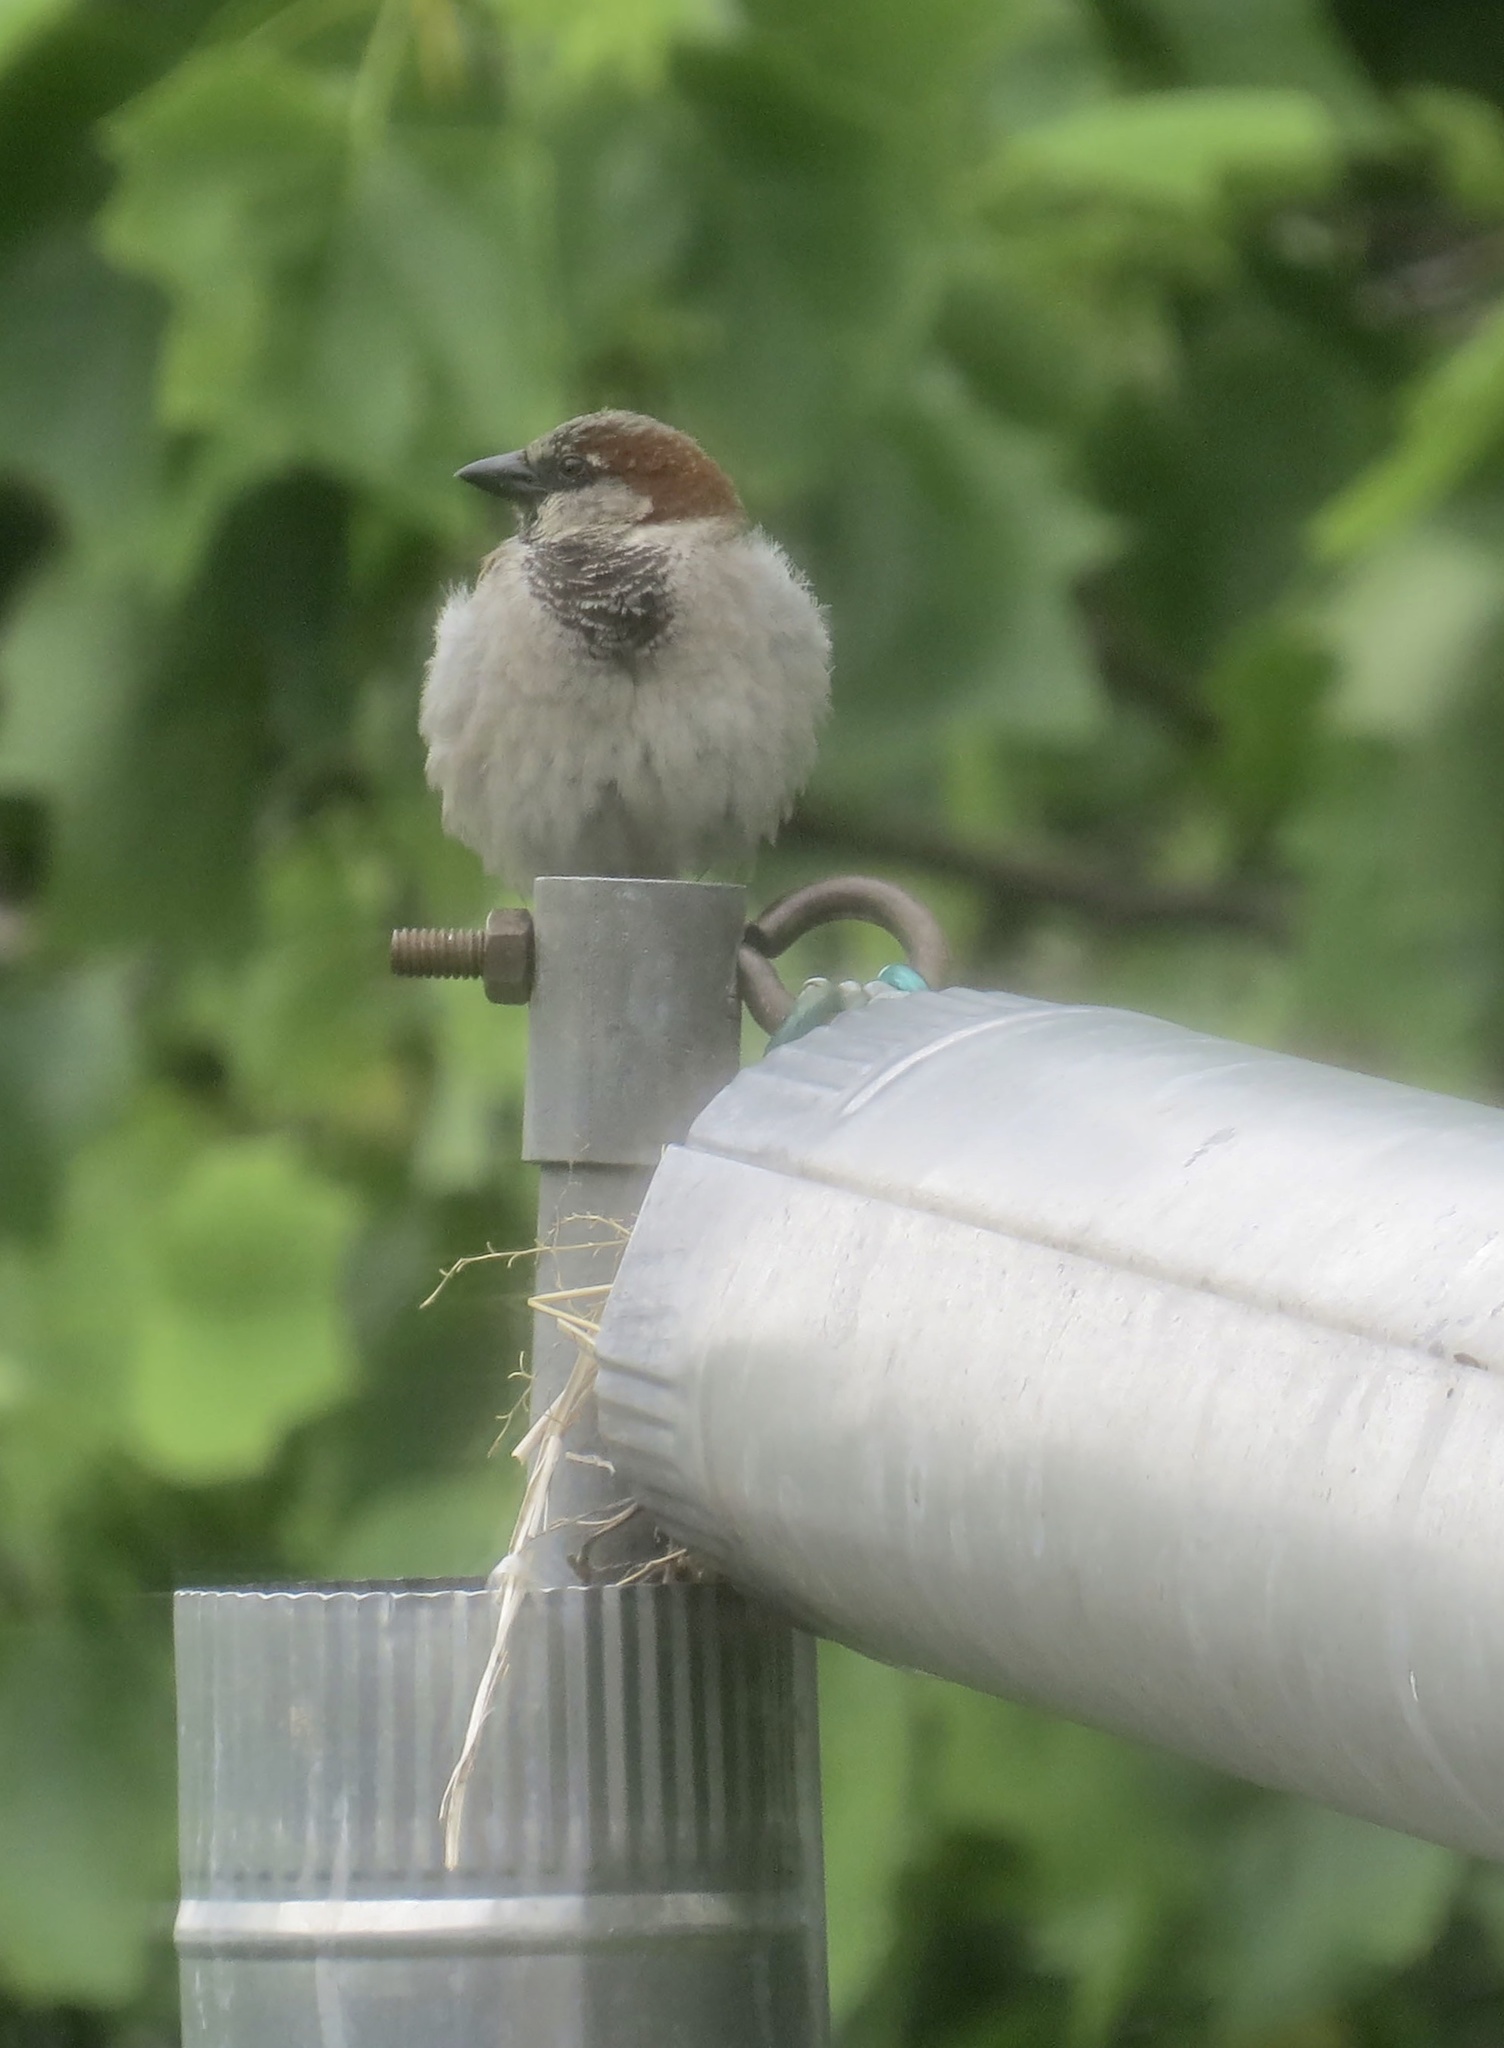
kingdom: Animalia
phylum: Chordata
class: Aves
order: Passeriformes
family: Passeridae
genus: Passer
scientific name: Passer domesticus
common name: House sparrow
